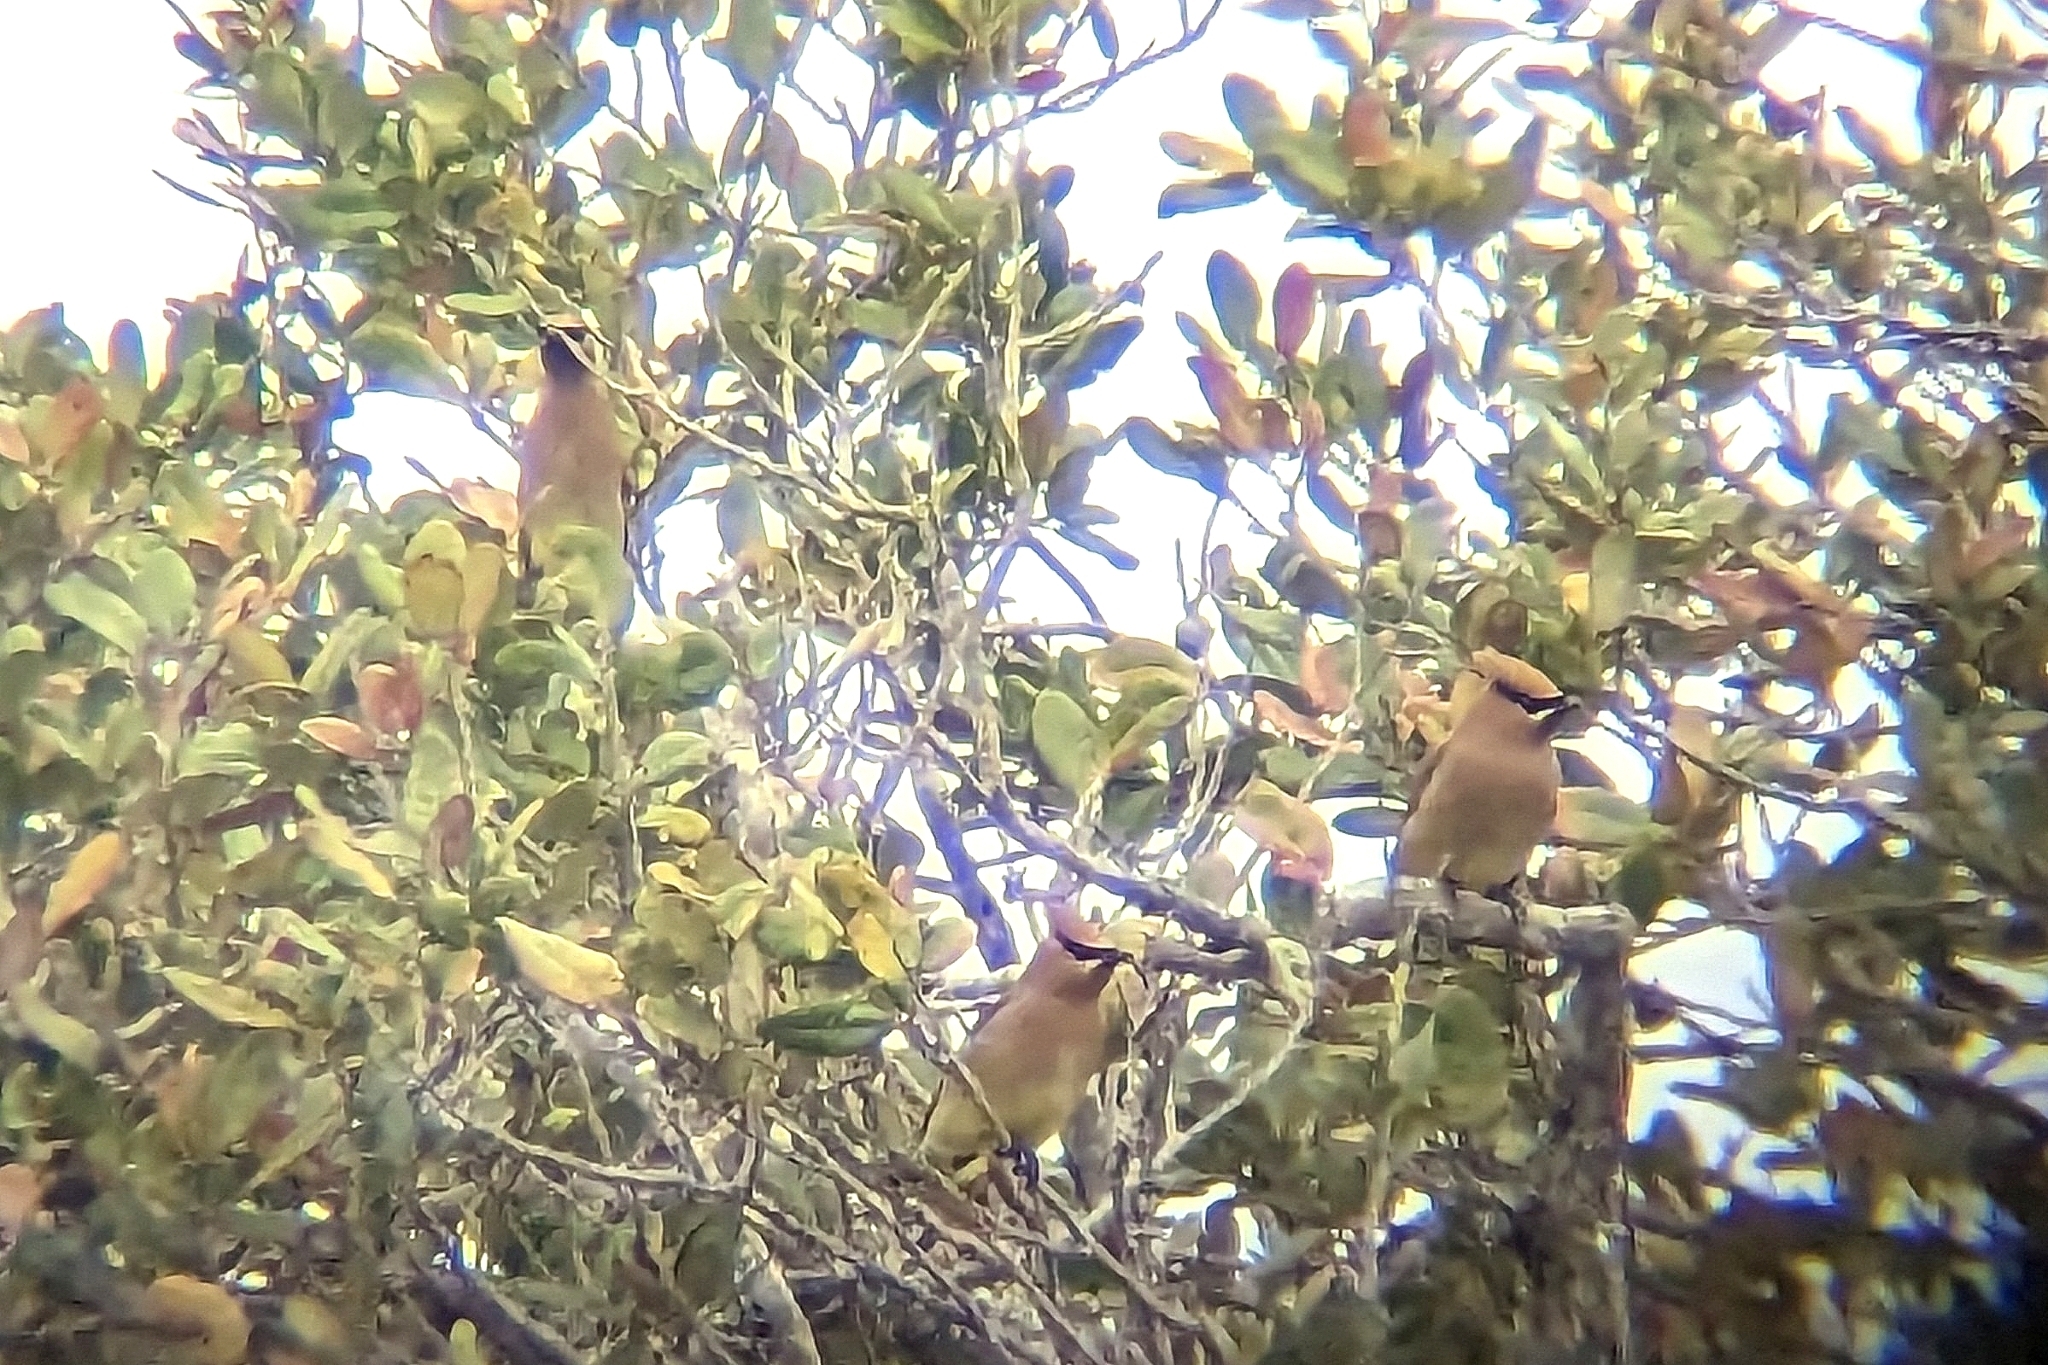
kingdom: Animalia
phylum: Chordata
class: Aves
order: Passeriformes
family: Bombycillidae
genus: Bombycilla
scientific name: Bombycilla cedrorum
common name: Cedar waxwing
